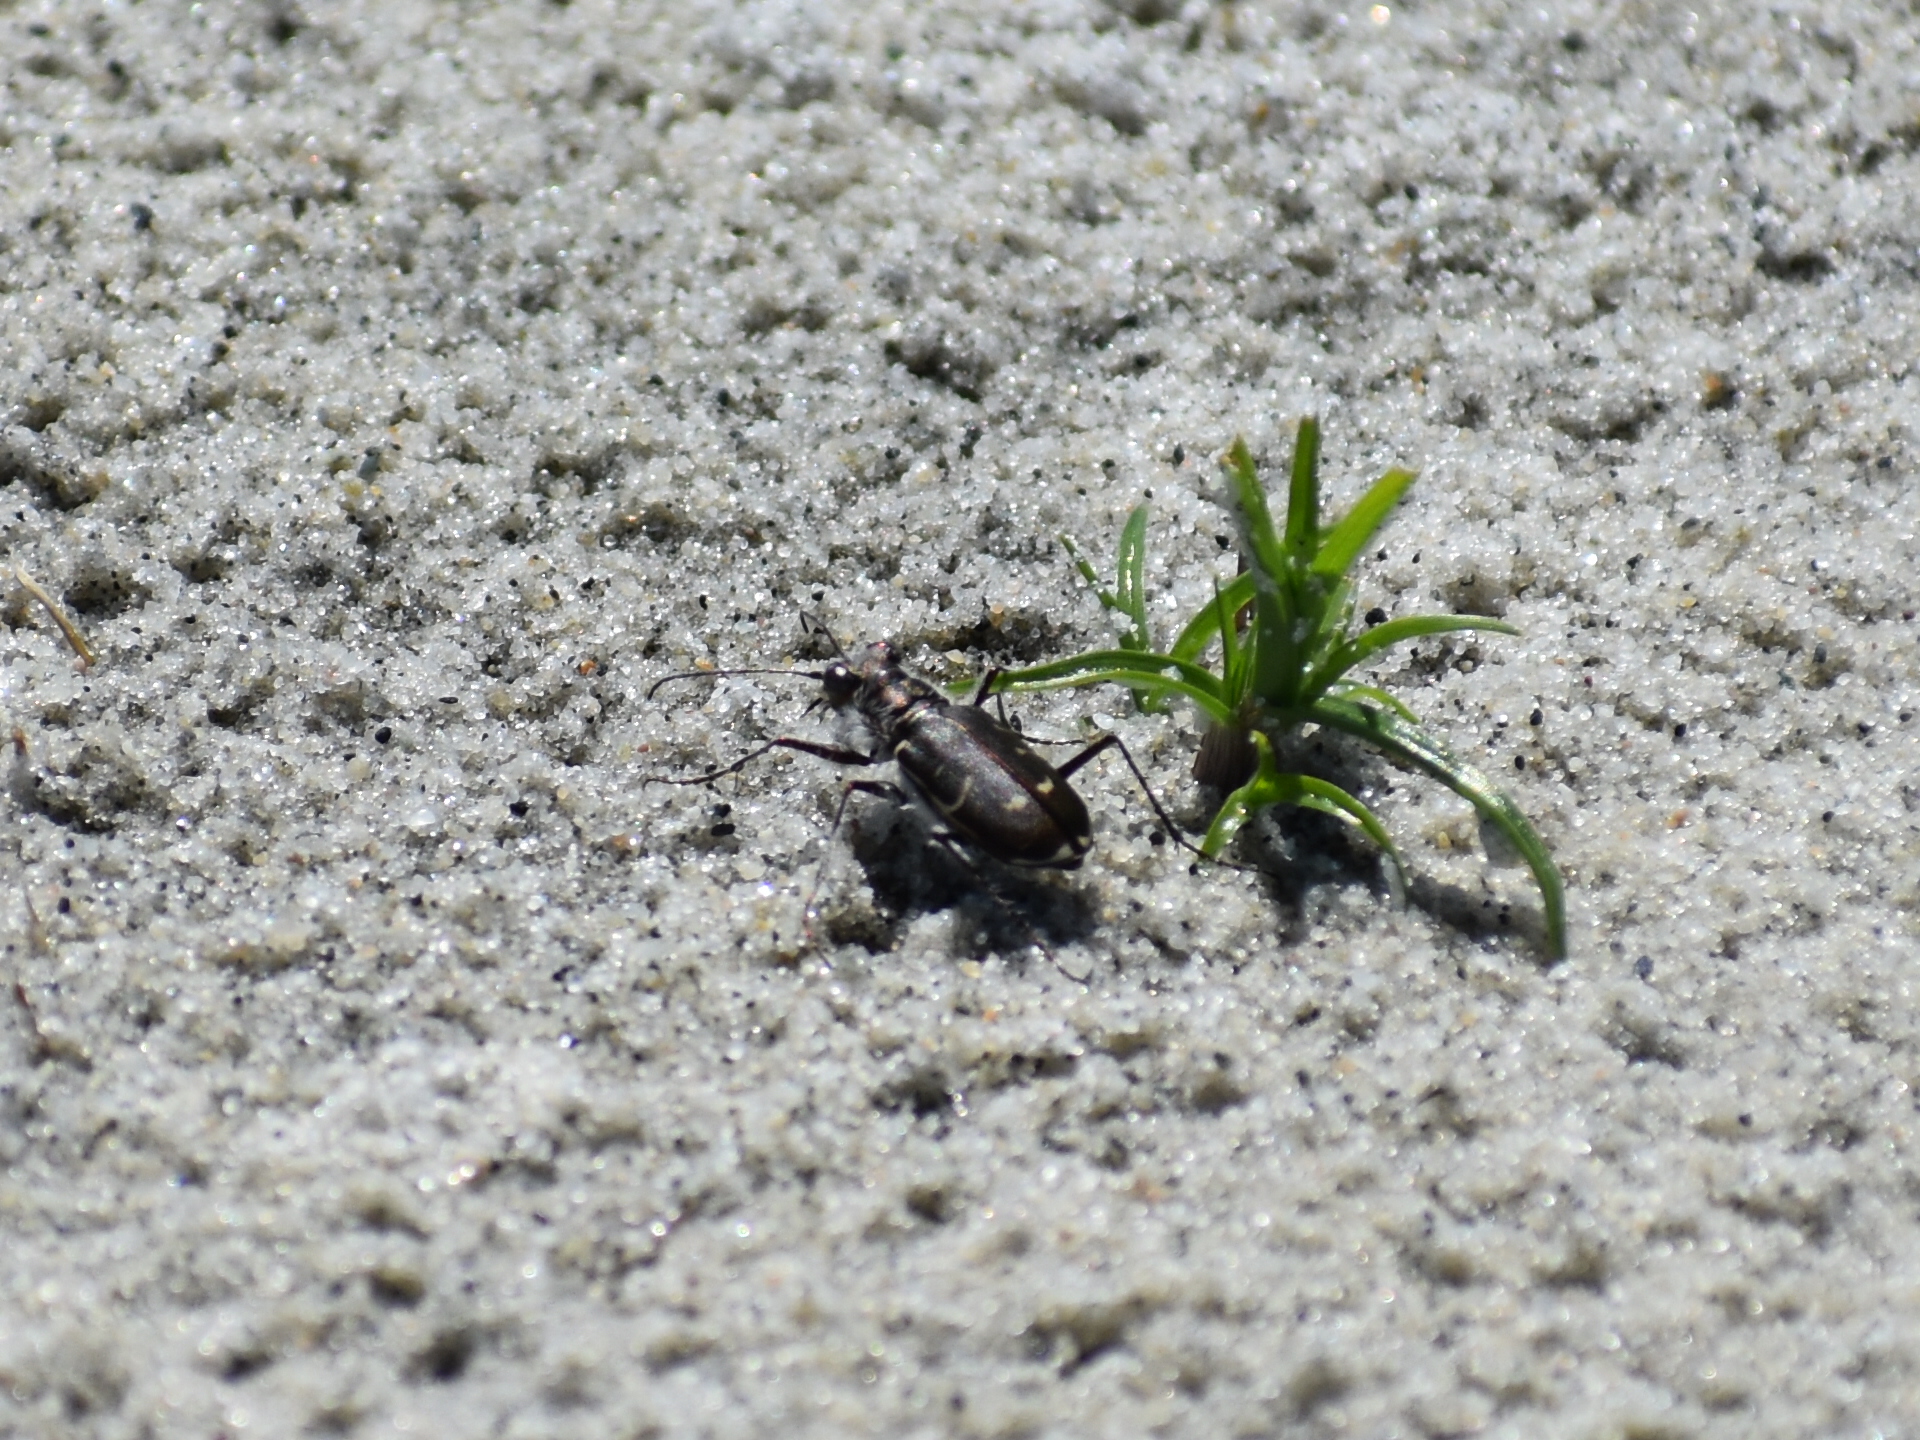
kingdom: Animalia
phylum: Arthropoda
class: Insecta
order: Coleoptera
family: Carabidae
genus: Cicindela
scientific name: Cicindela hirticollis
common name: Hairy-necked tiger beetle
